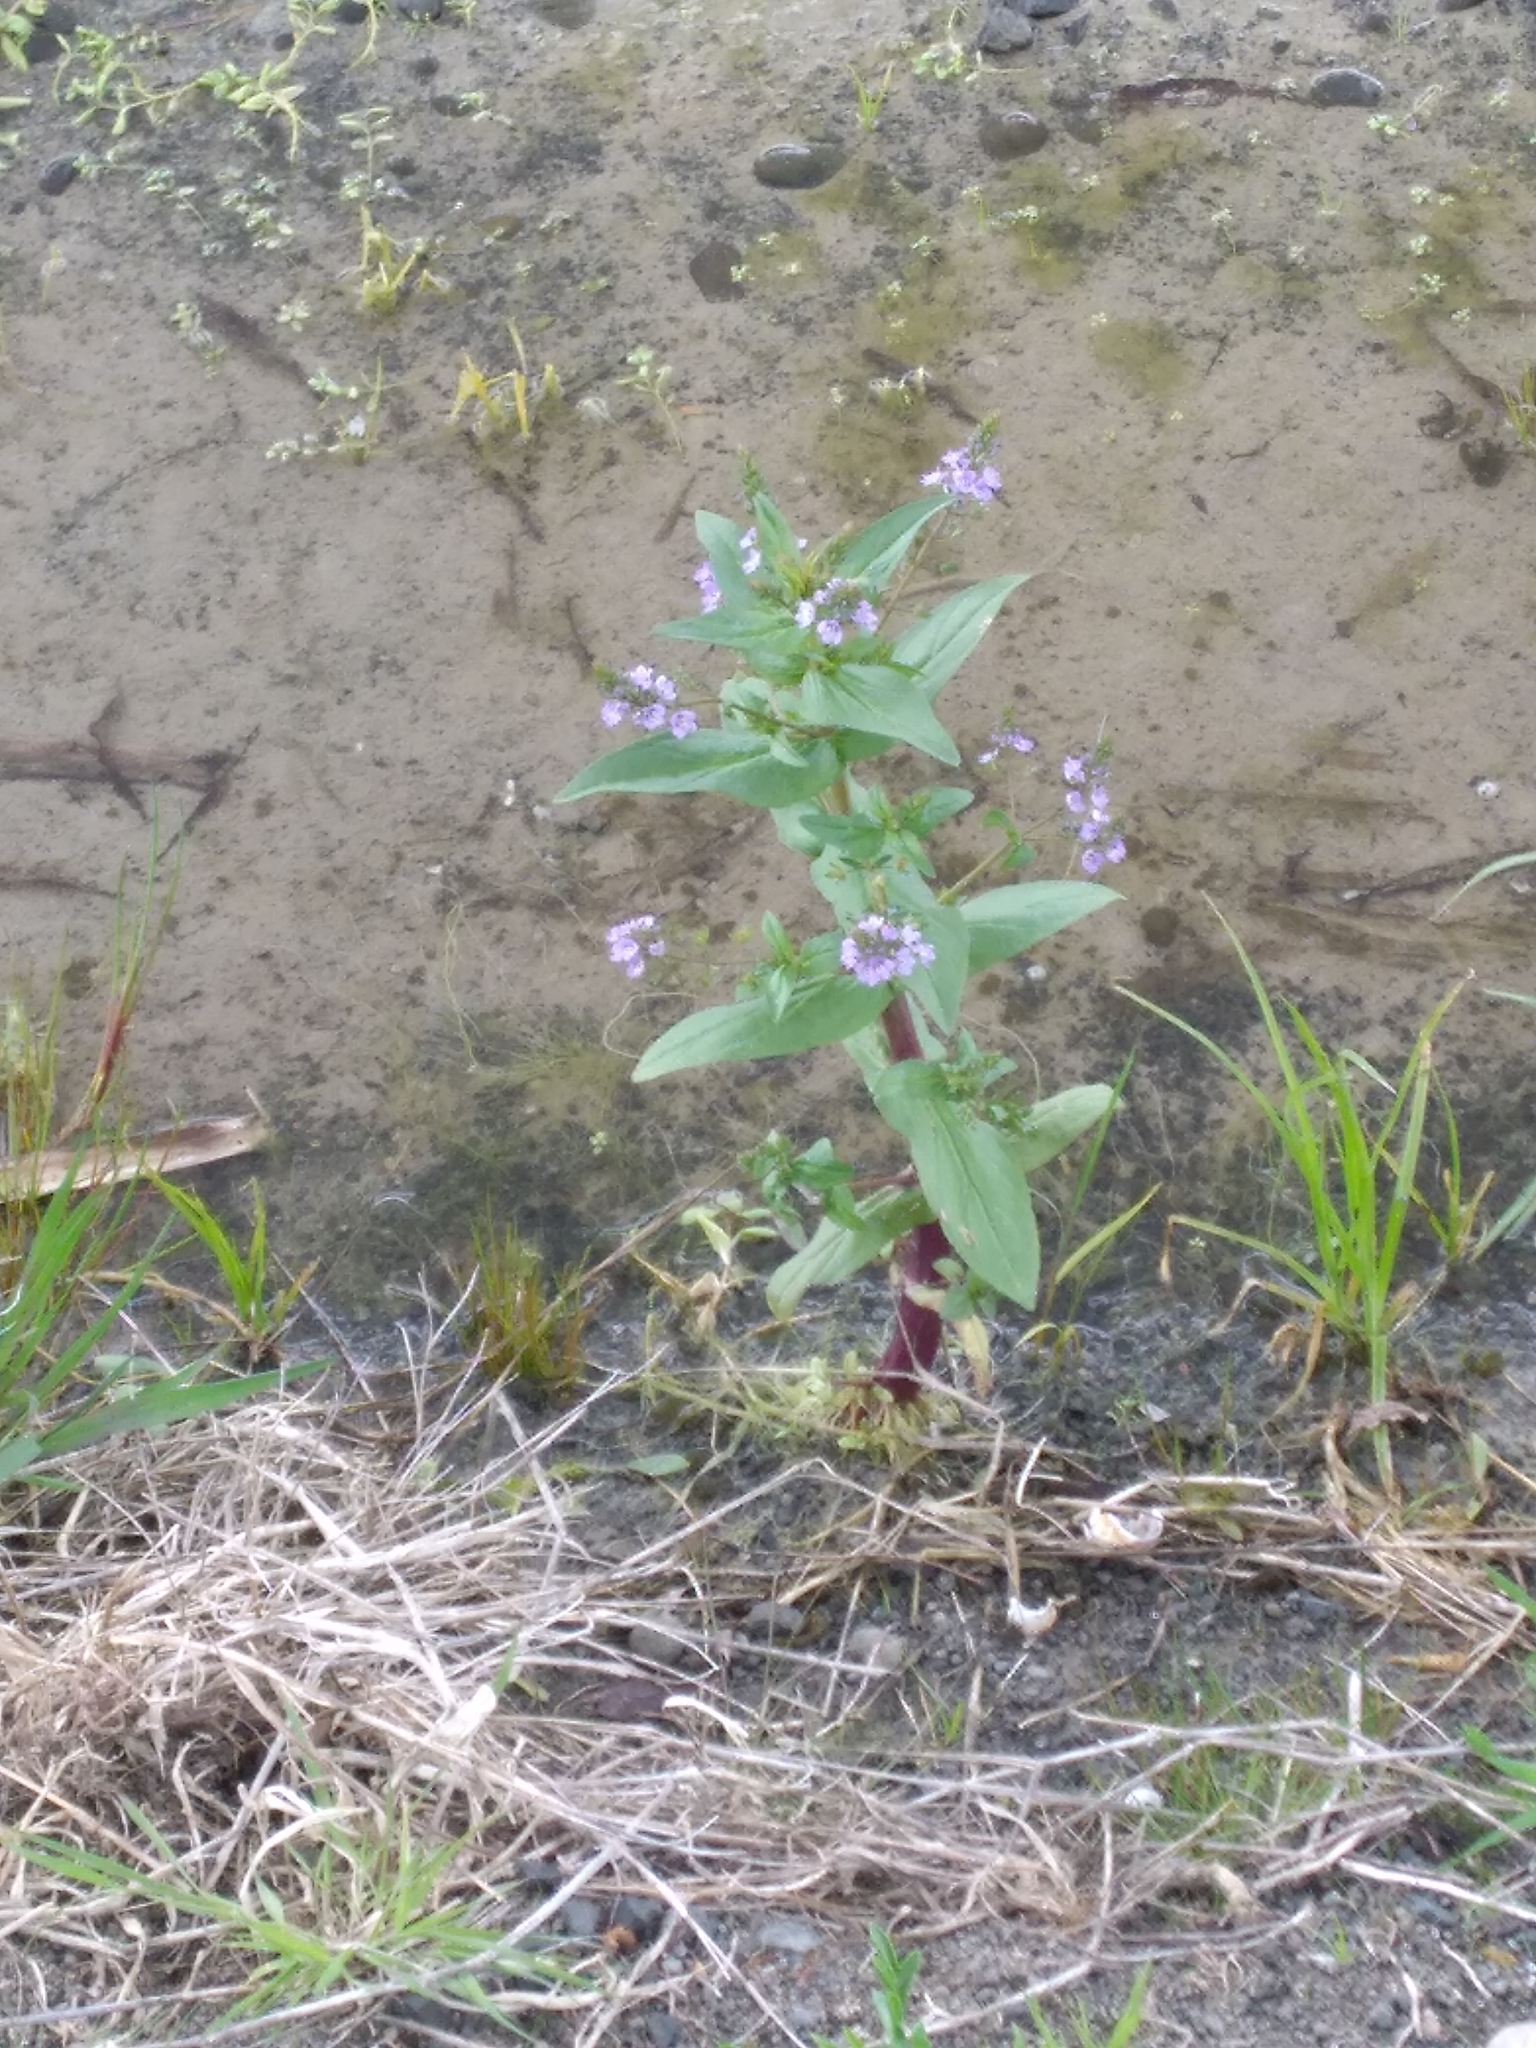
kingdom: Plantae
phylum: Tracheophyta
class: Magnoliopsida
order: Lamiales
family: Plantaginaceae
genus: Veronica
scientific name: Veronica anagallis-aquatica
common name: Water speedwell
